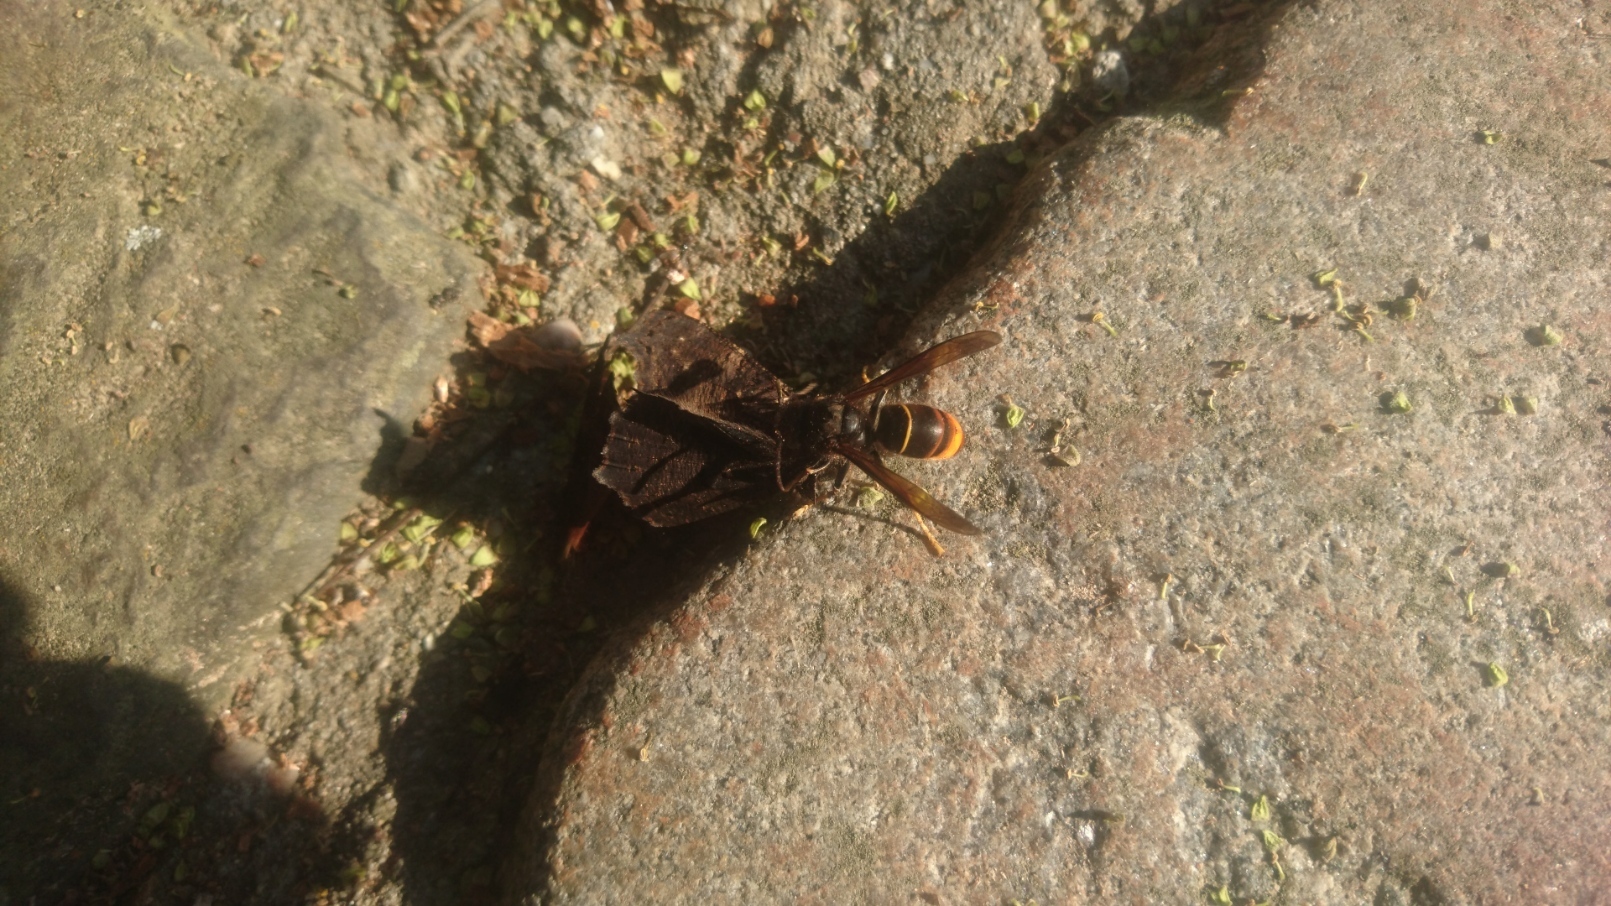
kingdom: Animalia
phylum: Arthropoda
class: Insecta
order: Hymenoptera
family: Vespidae
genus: Vespa
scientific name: Vespa velutina
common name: Asian hornet
